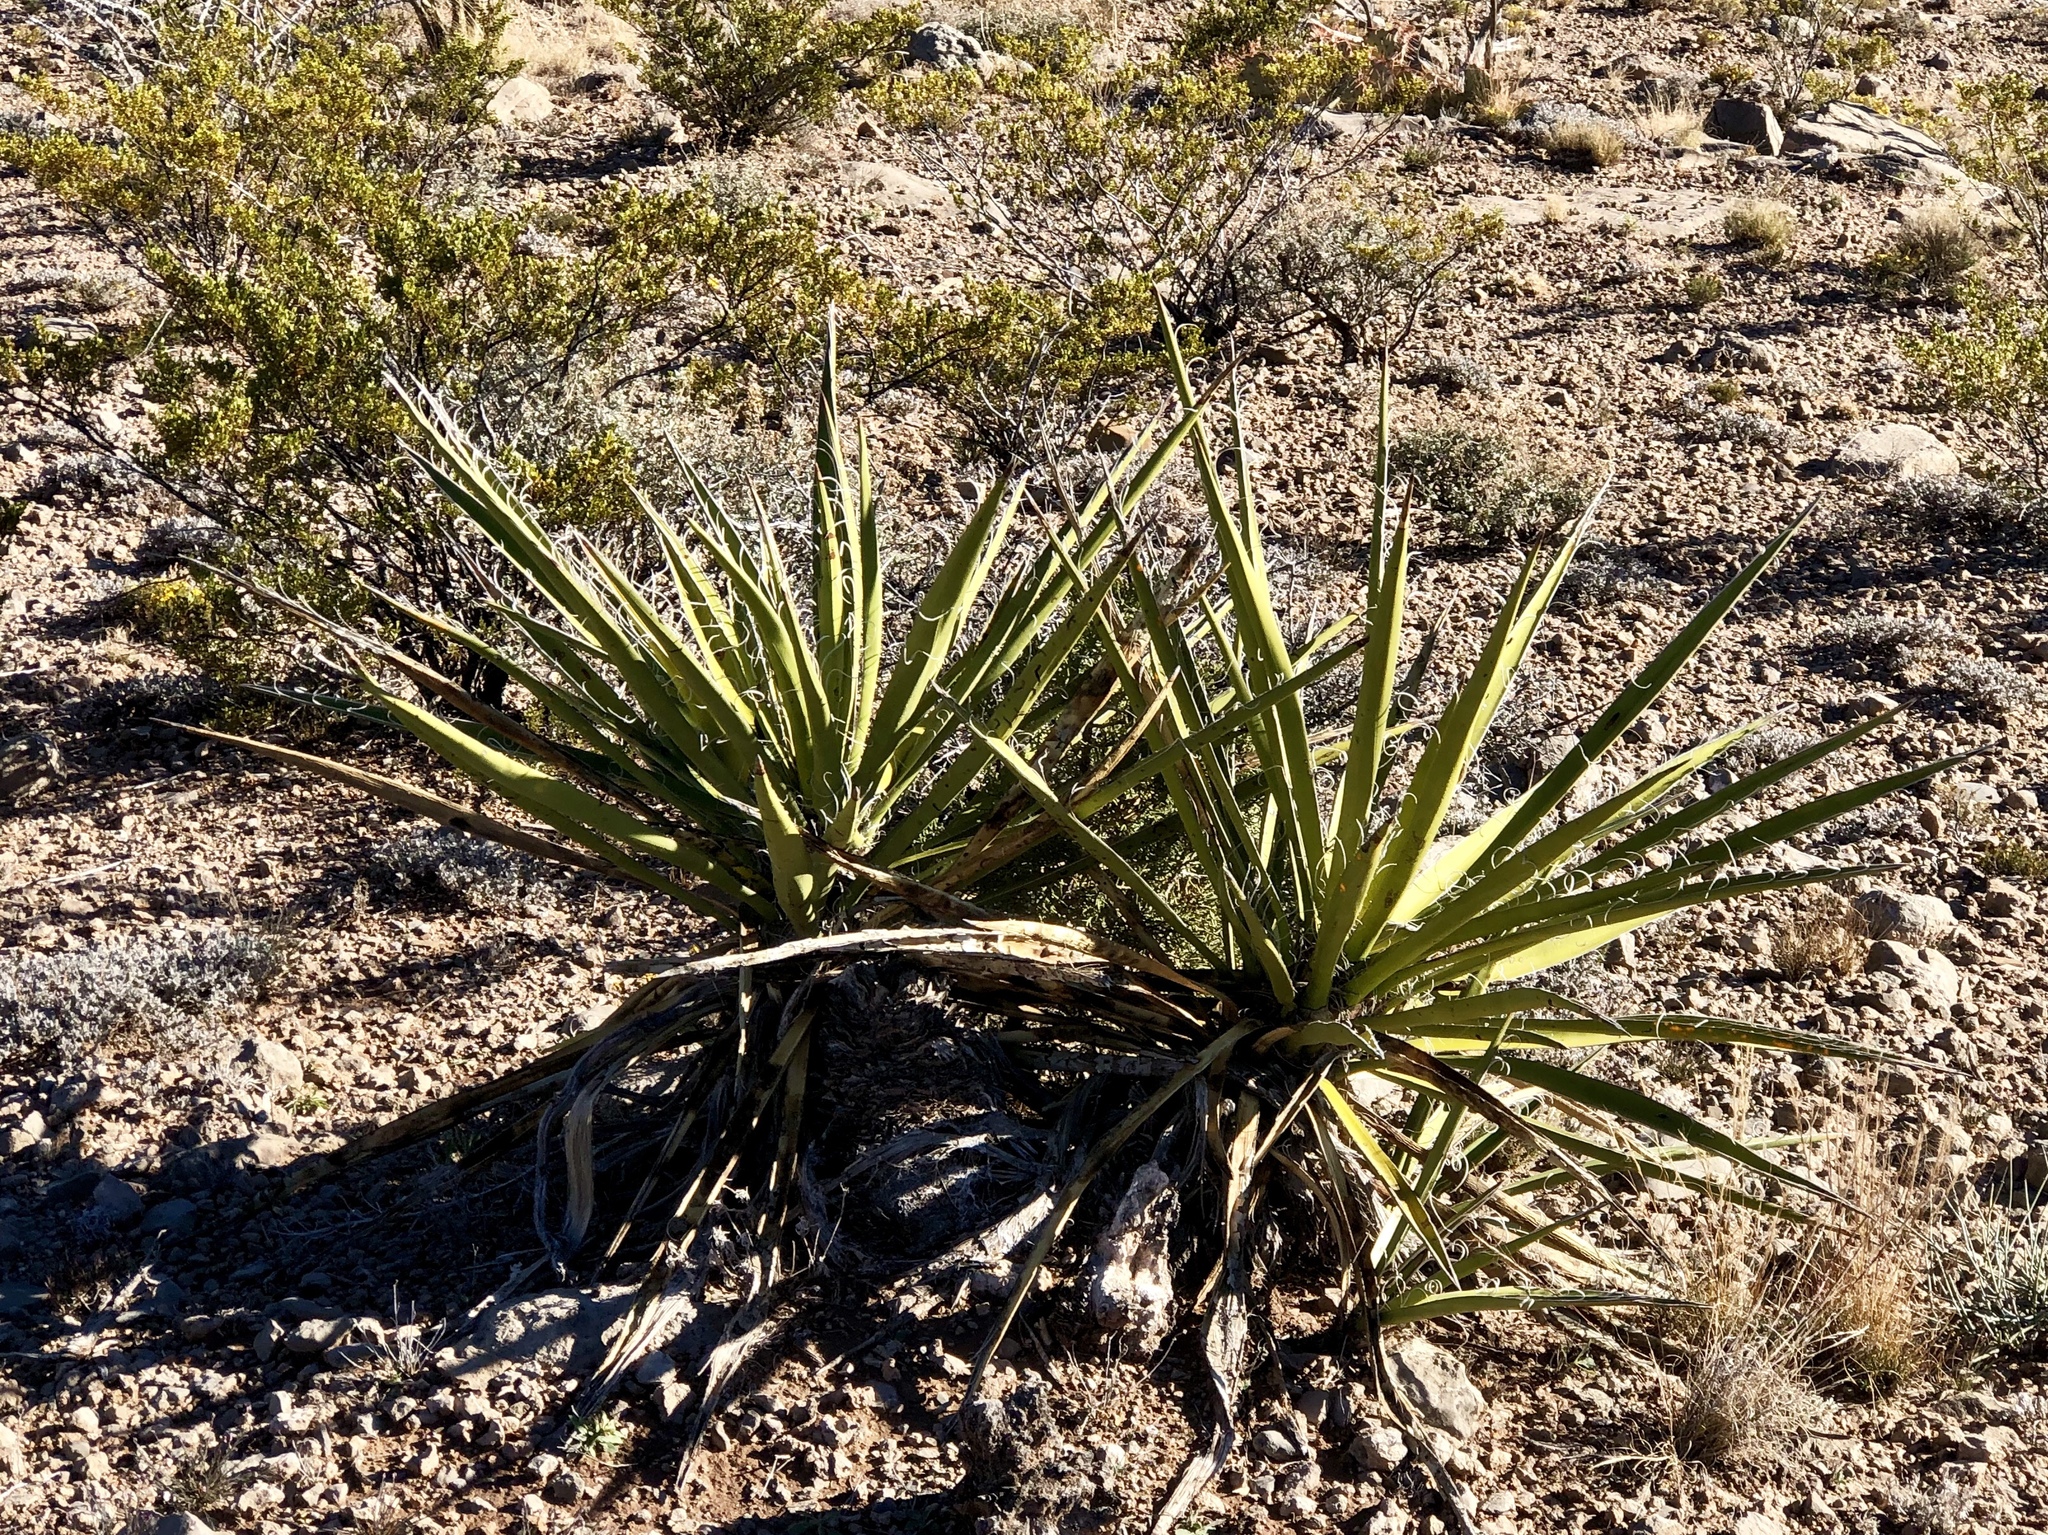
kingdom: Plantae
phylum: Tracheophyta
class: Liliopsida
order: Asparagales
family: Asparagaceae
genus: Yucca
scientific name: Yucca baccata
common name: Banana yucca
